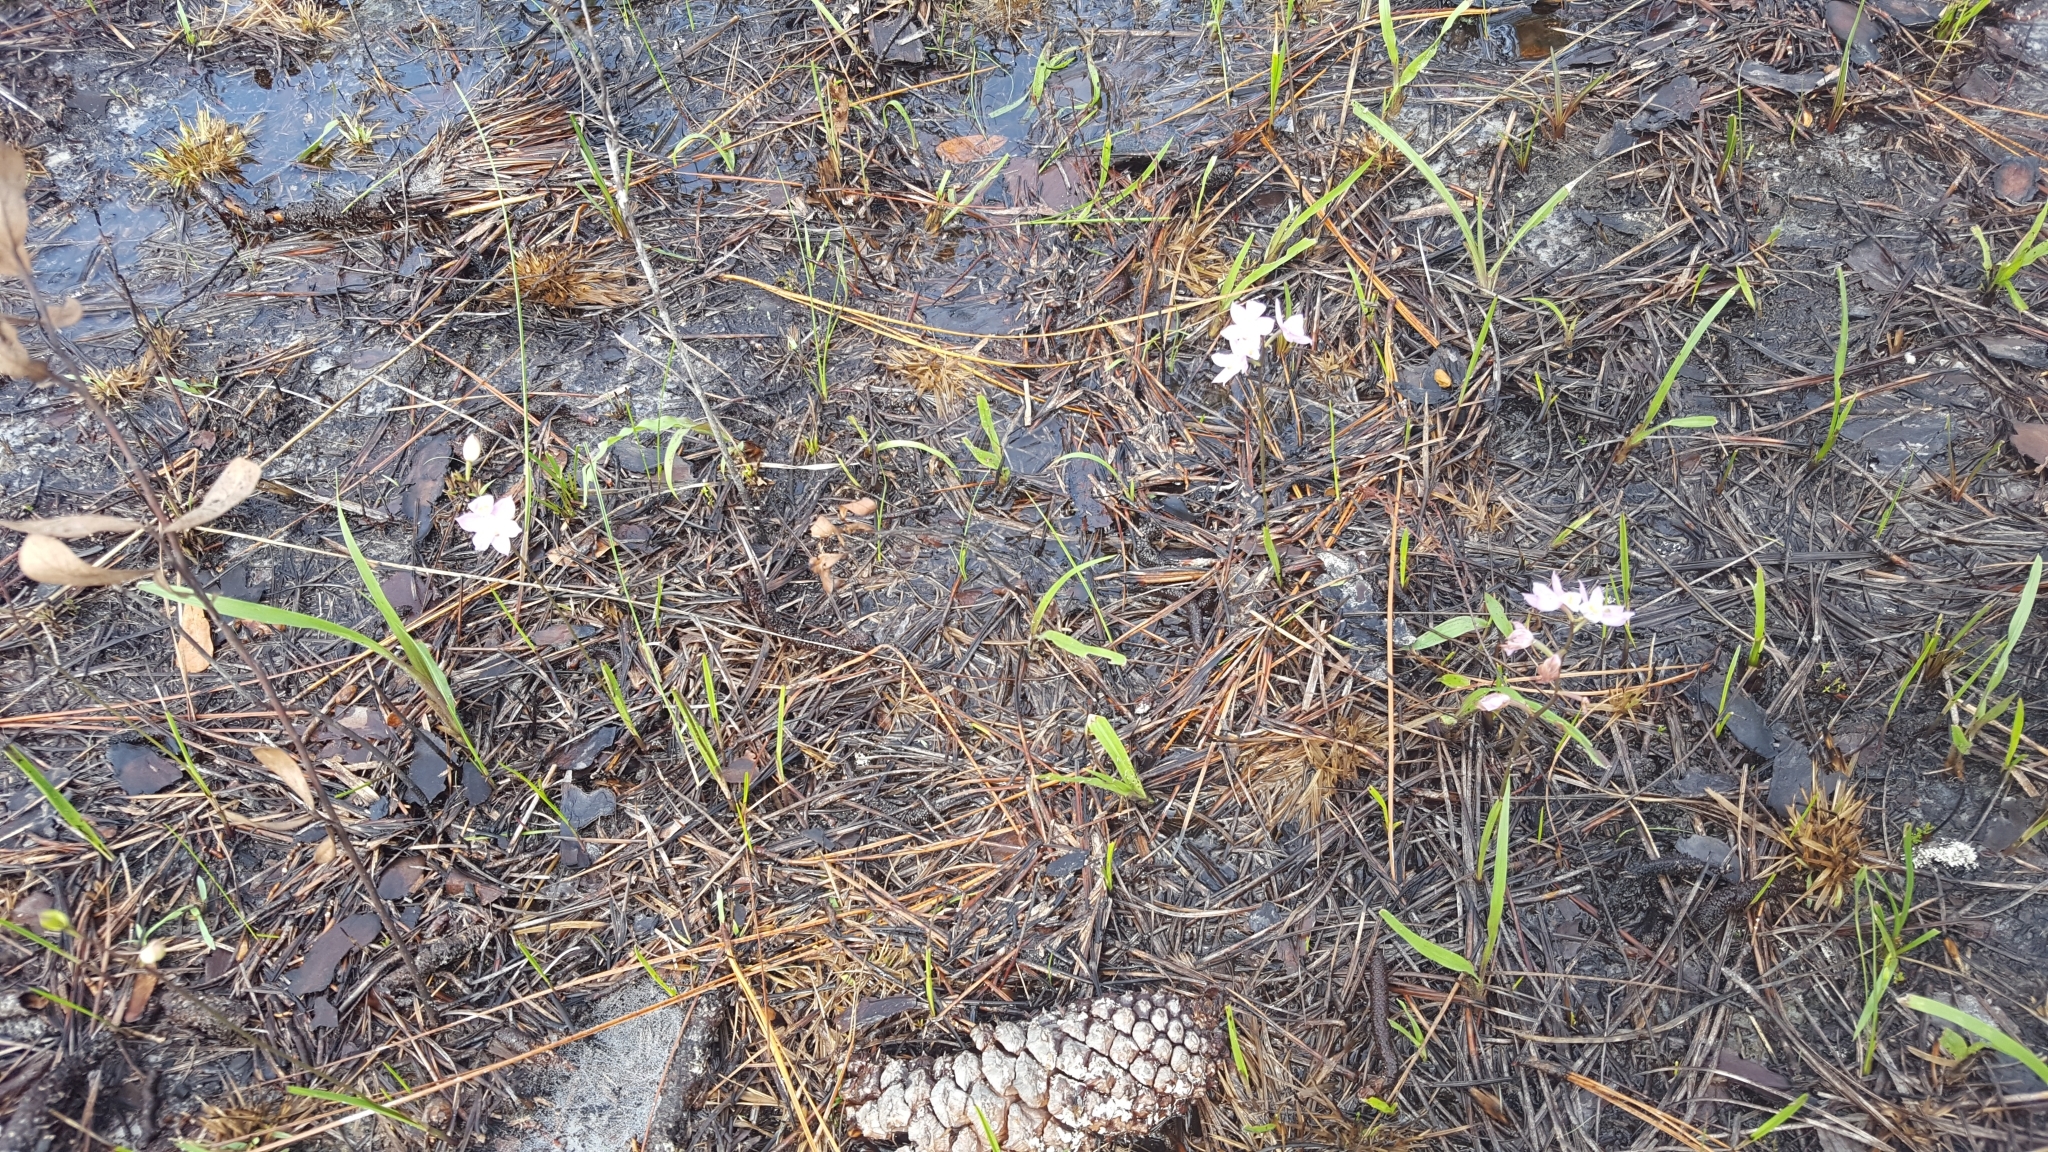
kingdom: Plantae
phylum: Tracheophyta
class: Liliopsida
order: Asparagales
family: Orchidaceae
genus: Calopogon
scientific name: Calopogon multiflorus
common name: Many-flowered grass-pink orchid
